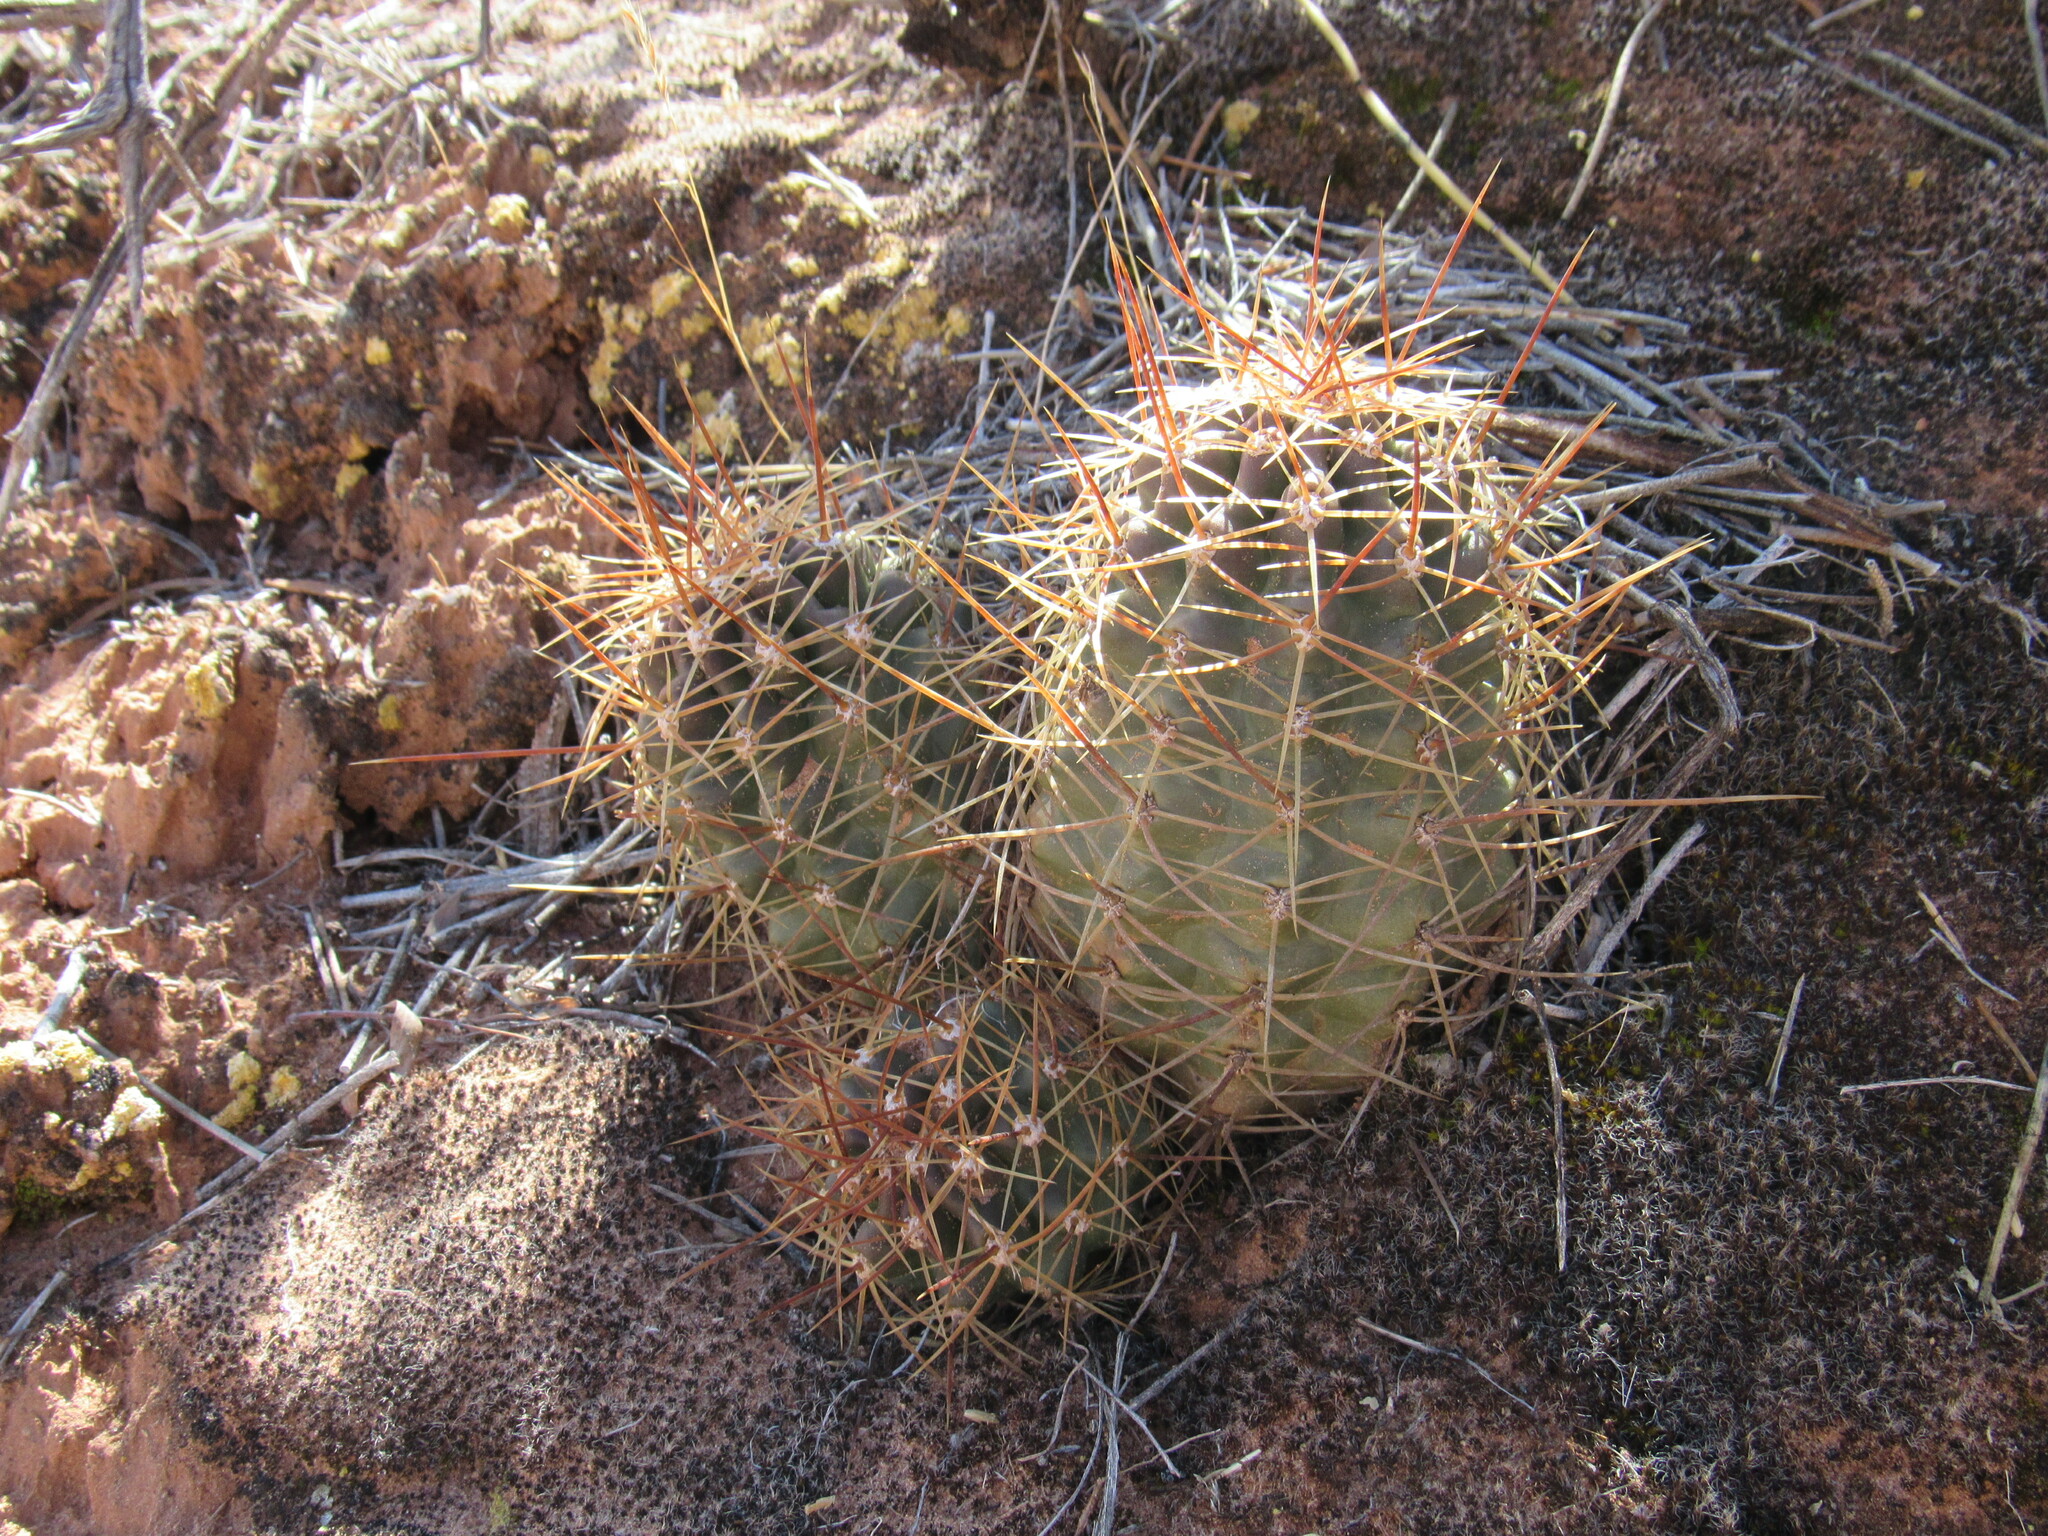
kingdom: Plantae
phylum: Tracheophyta
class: Magnoliopsida
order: Caryophyllales
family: Cactaceae
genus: Echinocereus
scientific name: Echinocereus triglochidiatus
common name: Claretcup hedgehog
